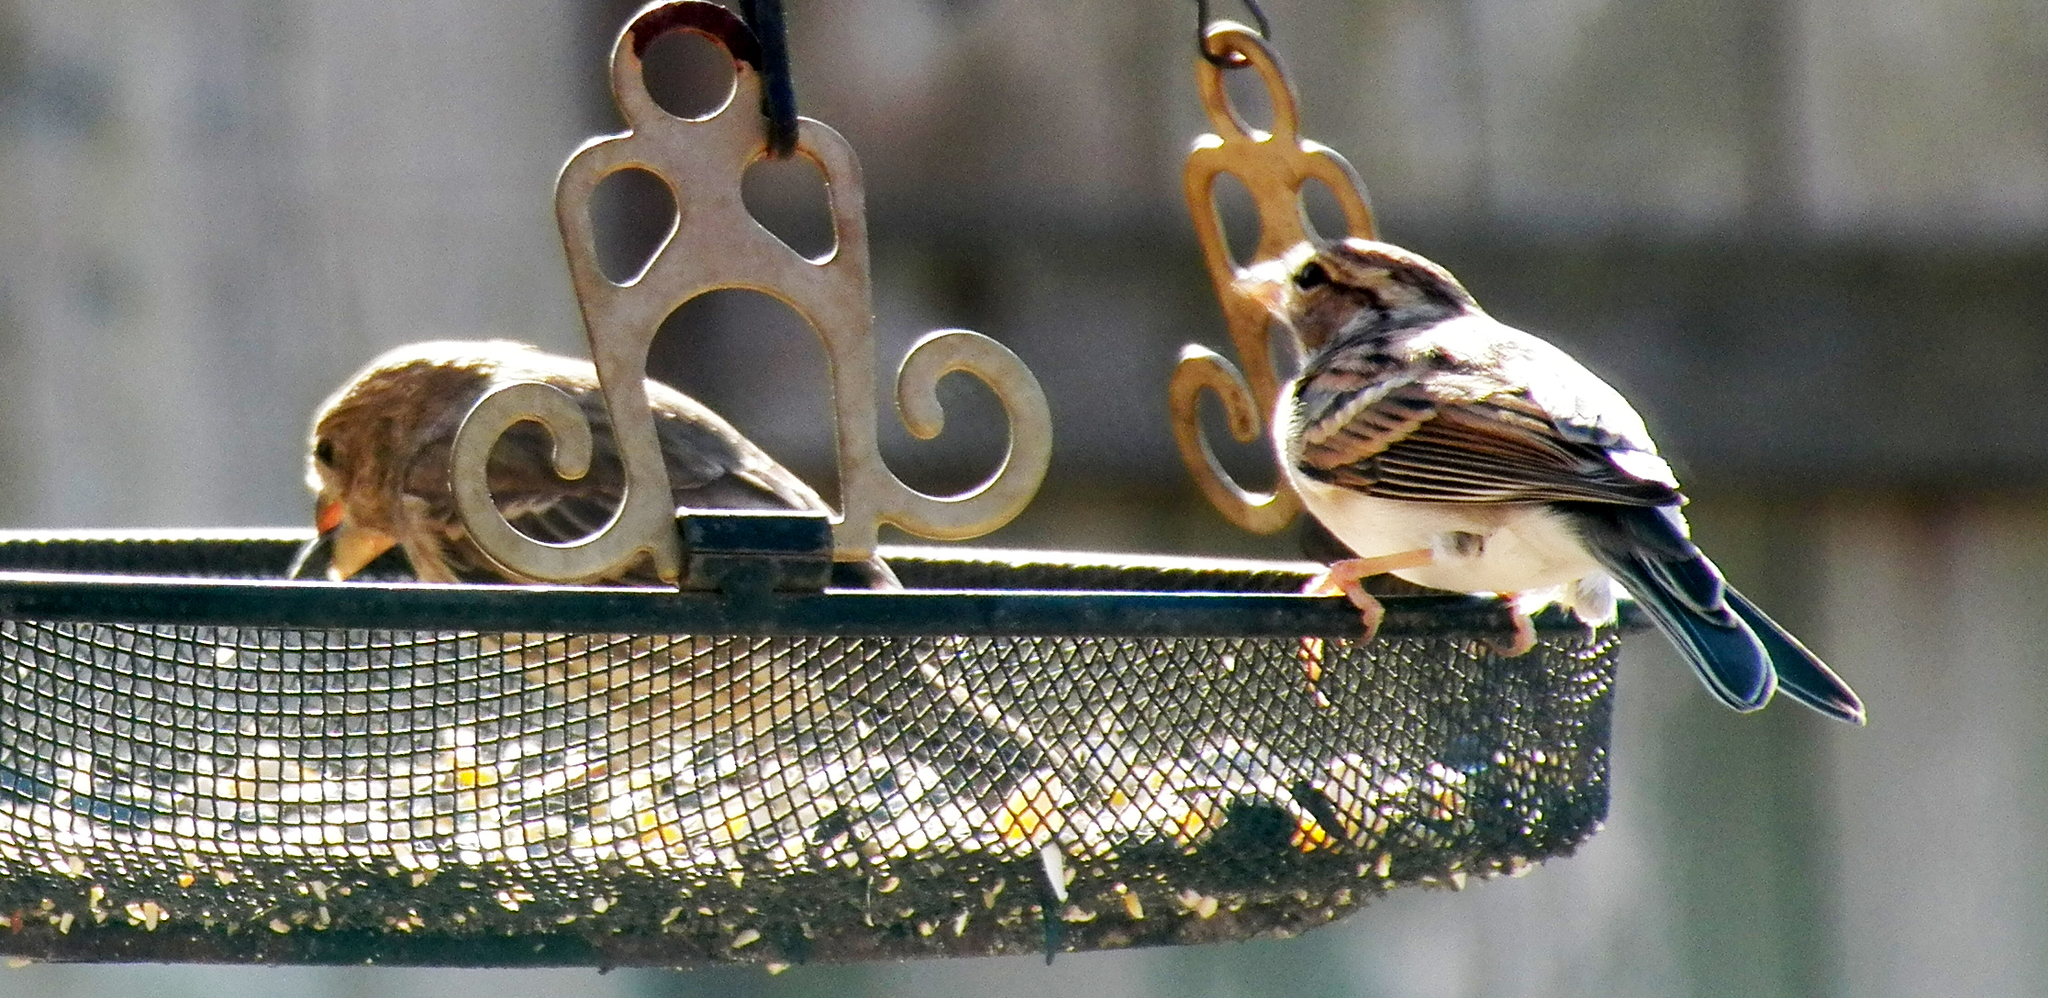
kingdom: Animalia
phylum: Chordata
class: Aves
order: Passeriformes
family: Passerellidae
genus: Spizella
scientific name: Spizella passerina
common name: Chipping sparrow
